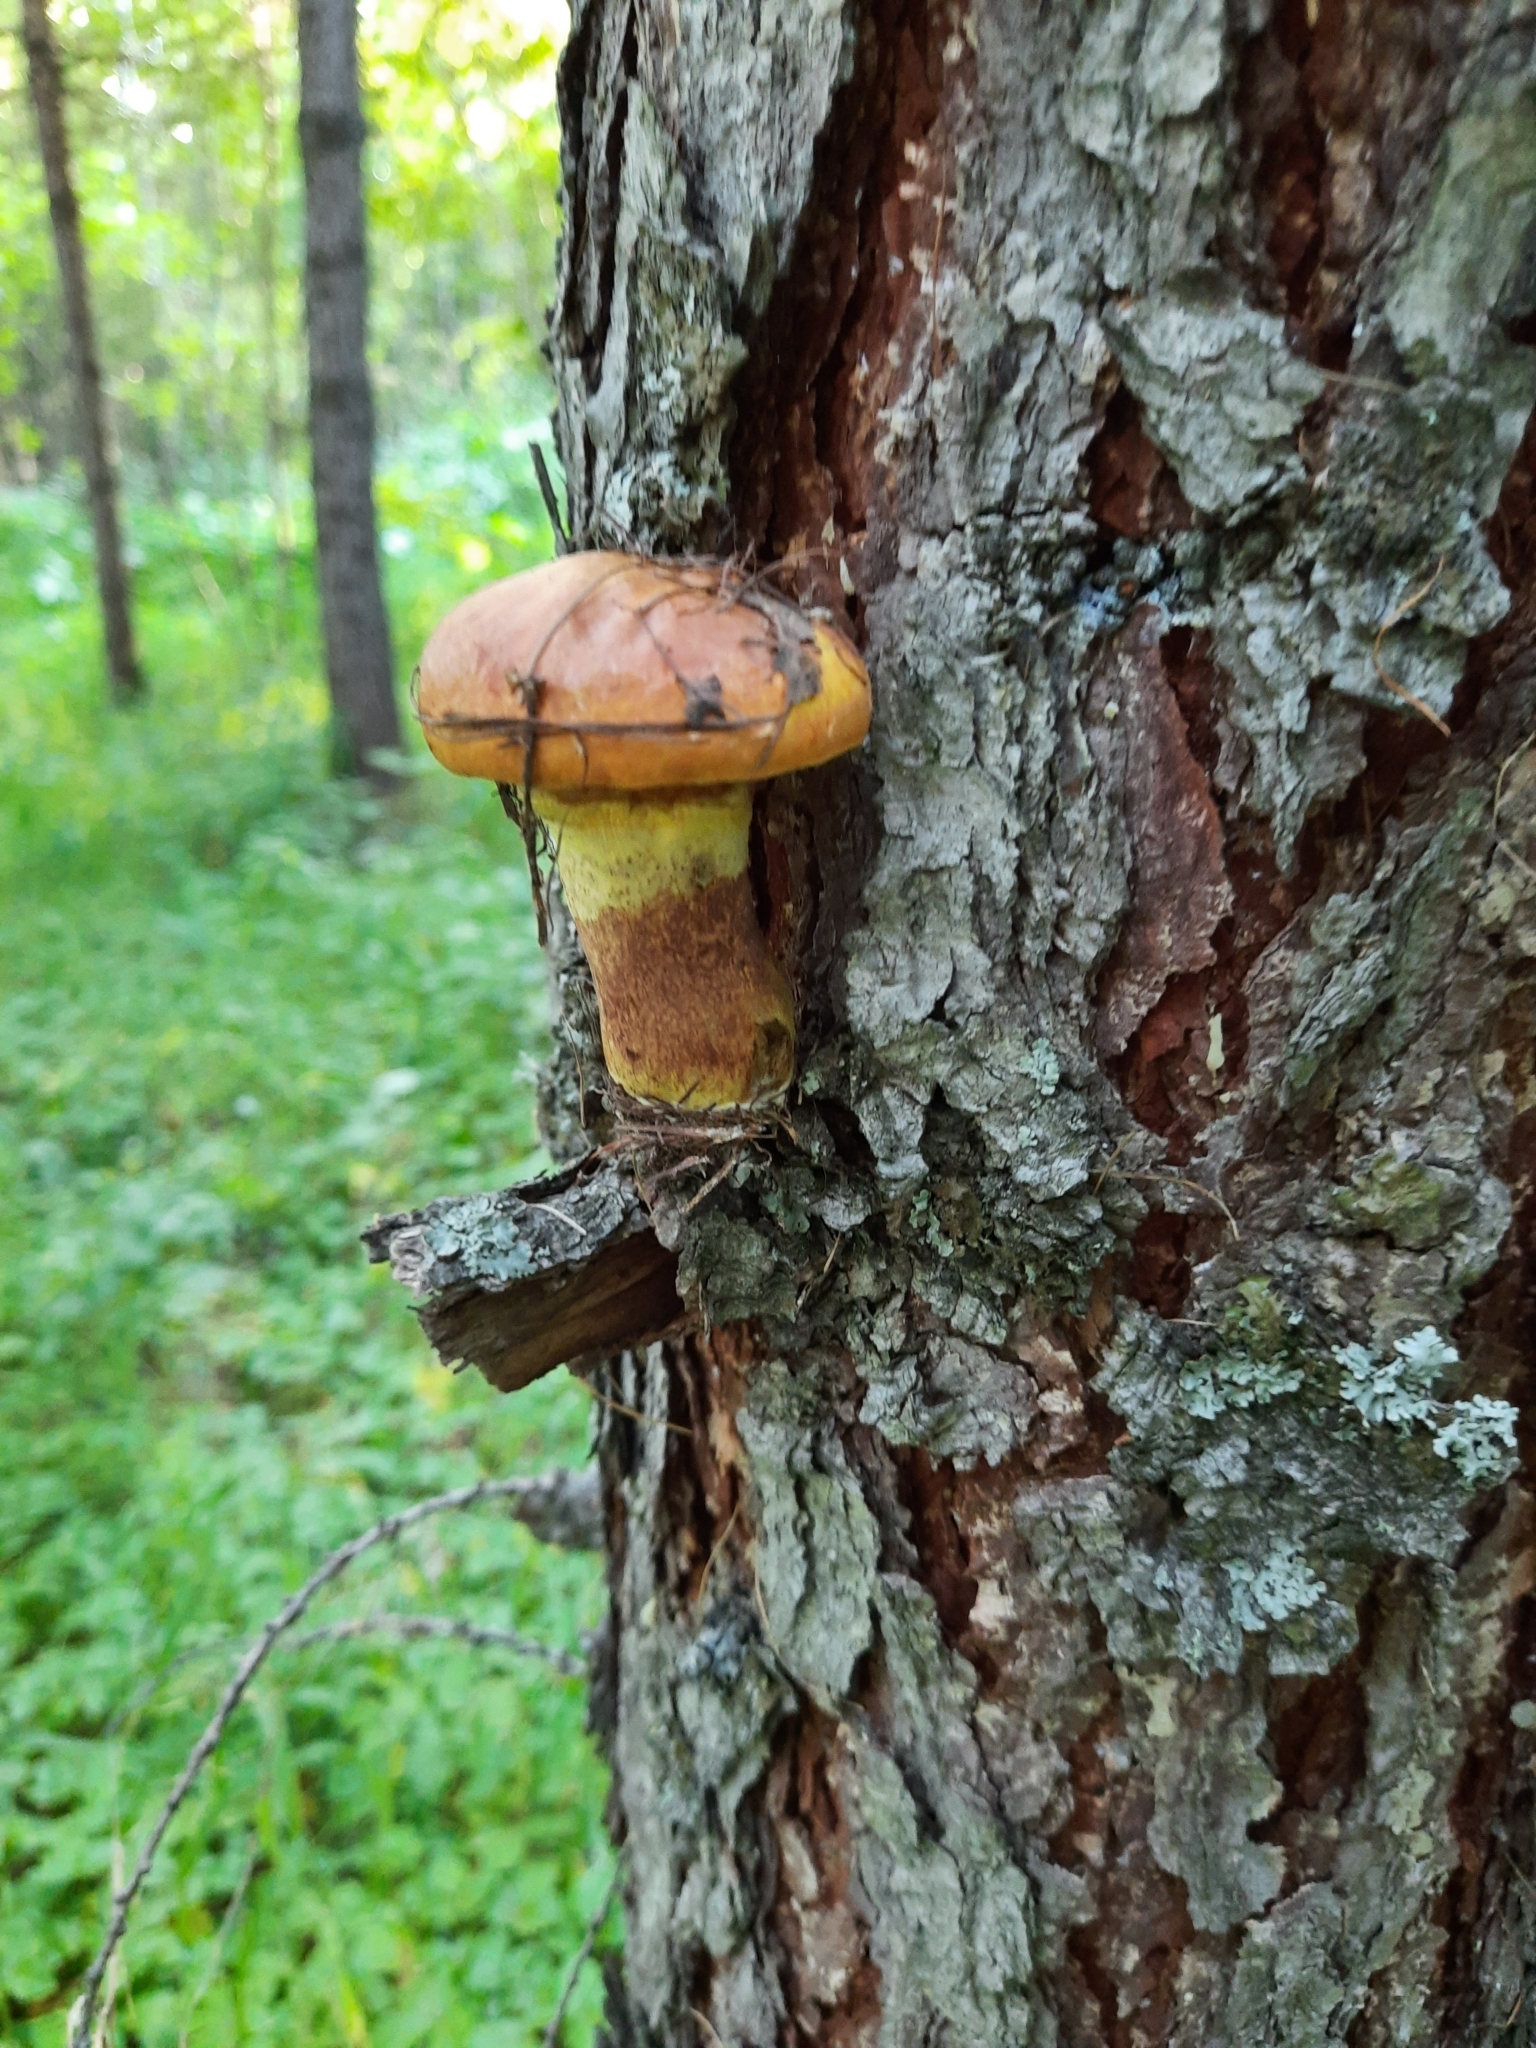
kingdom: Fungi
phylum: Basidiomycota
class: Agaricomycetes
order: Boletales
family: Suillaceae
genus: Suillus
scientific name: Suillus grevillei
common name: Larch bolete
